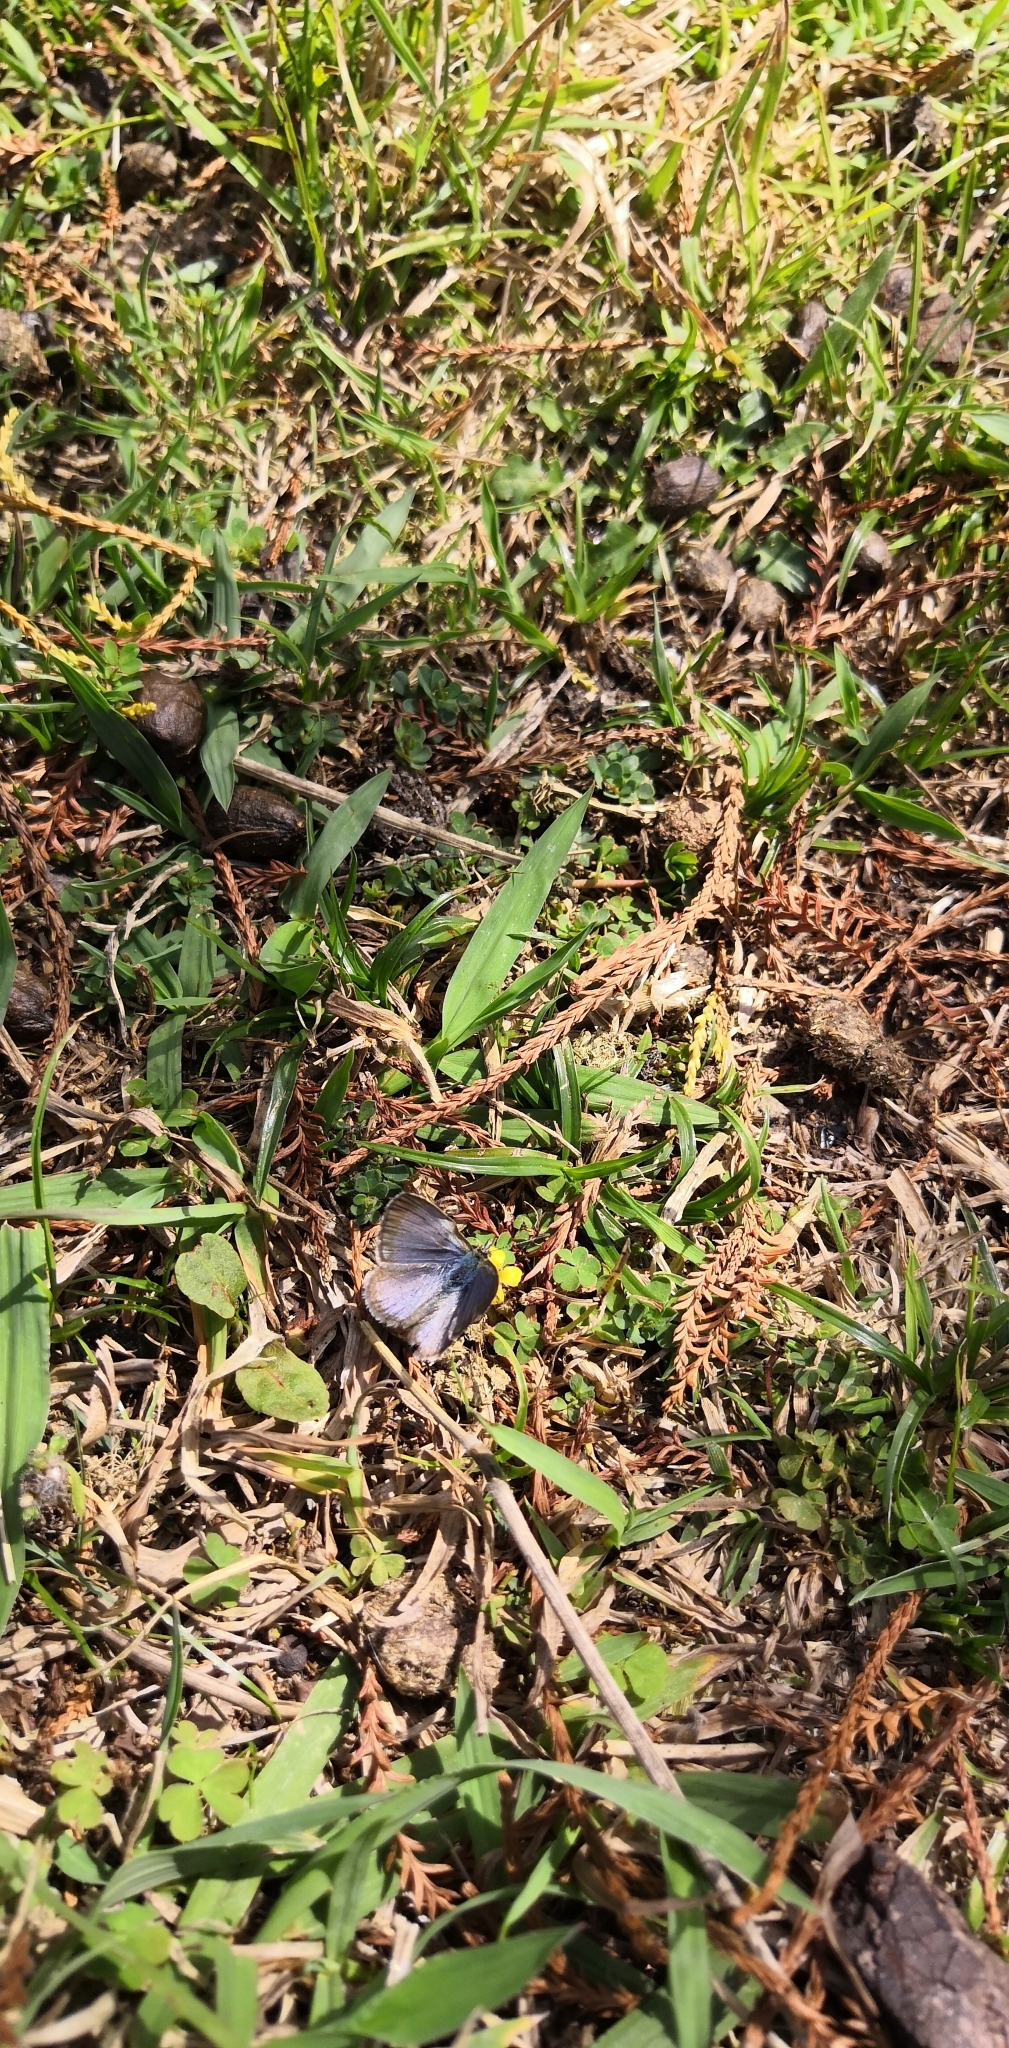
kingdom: Animalia
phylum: Arthropoda
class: Insecta
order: Lepidoptera
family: Lycaenidae
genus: Zizina
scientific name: Zizina labradus
